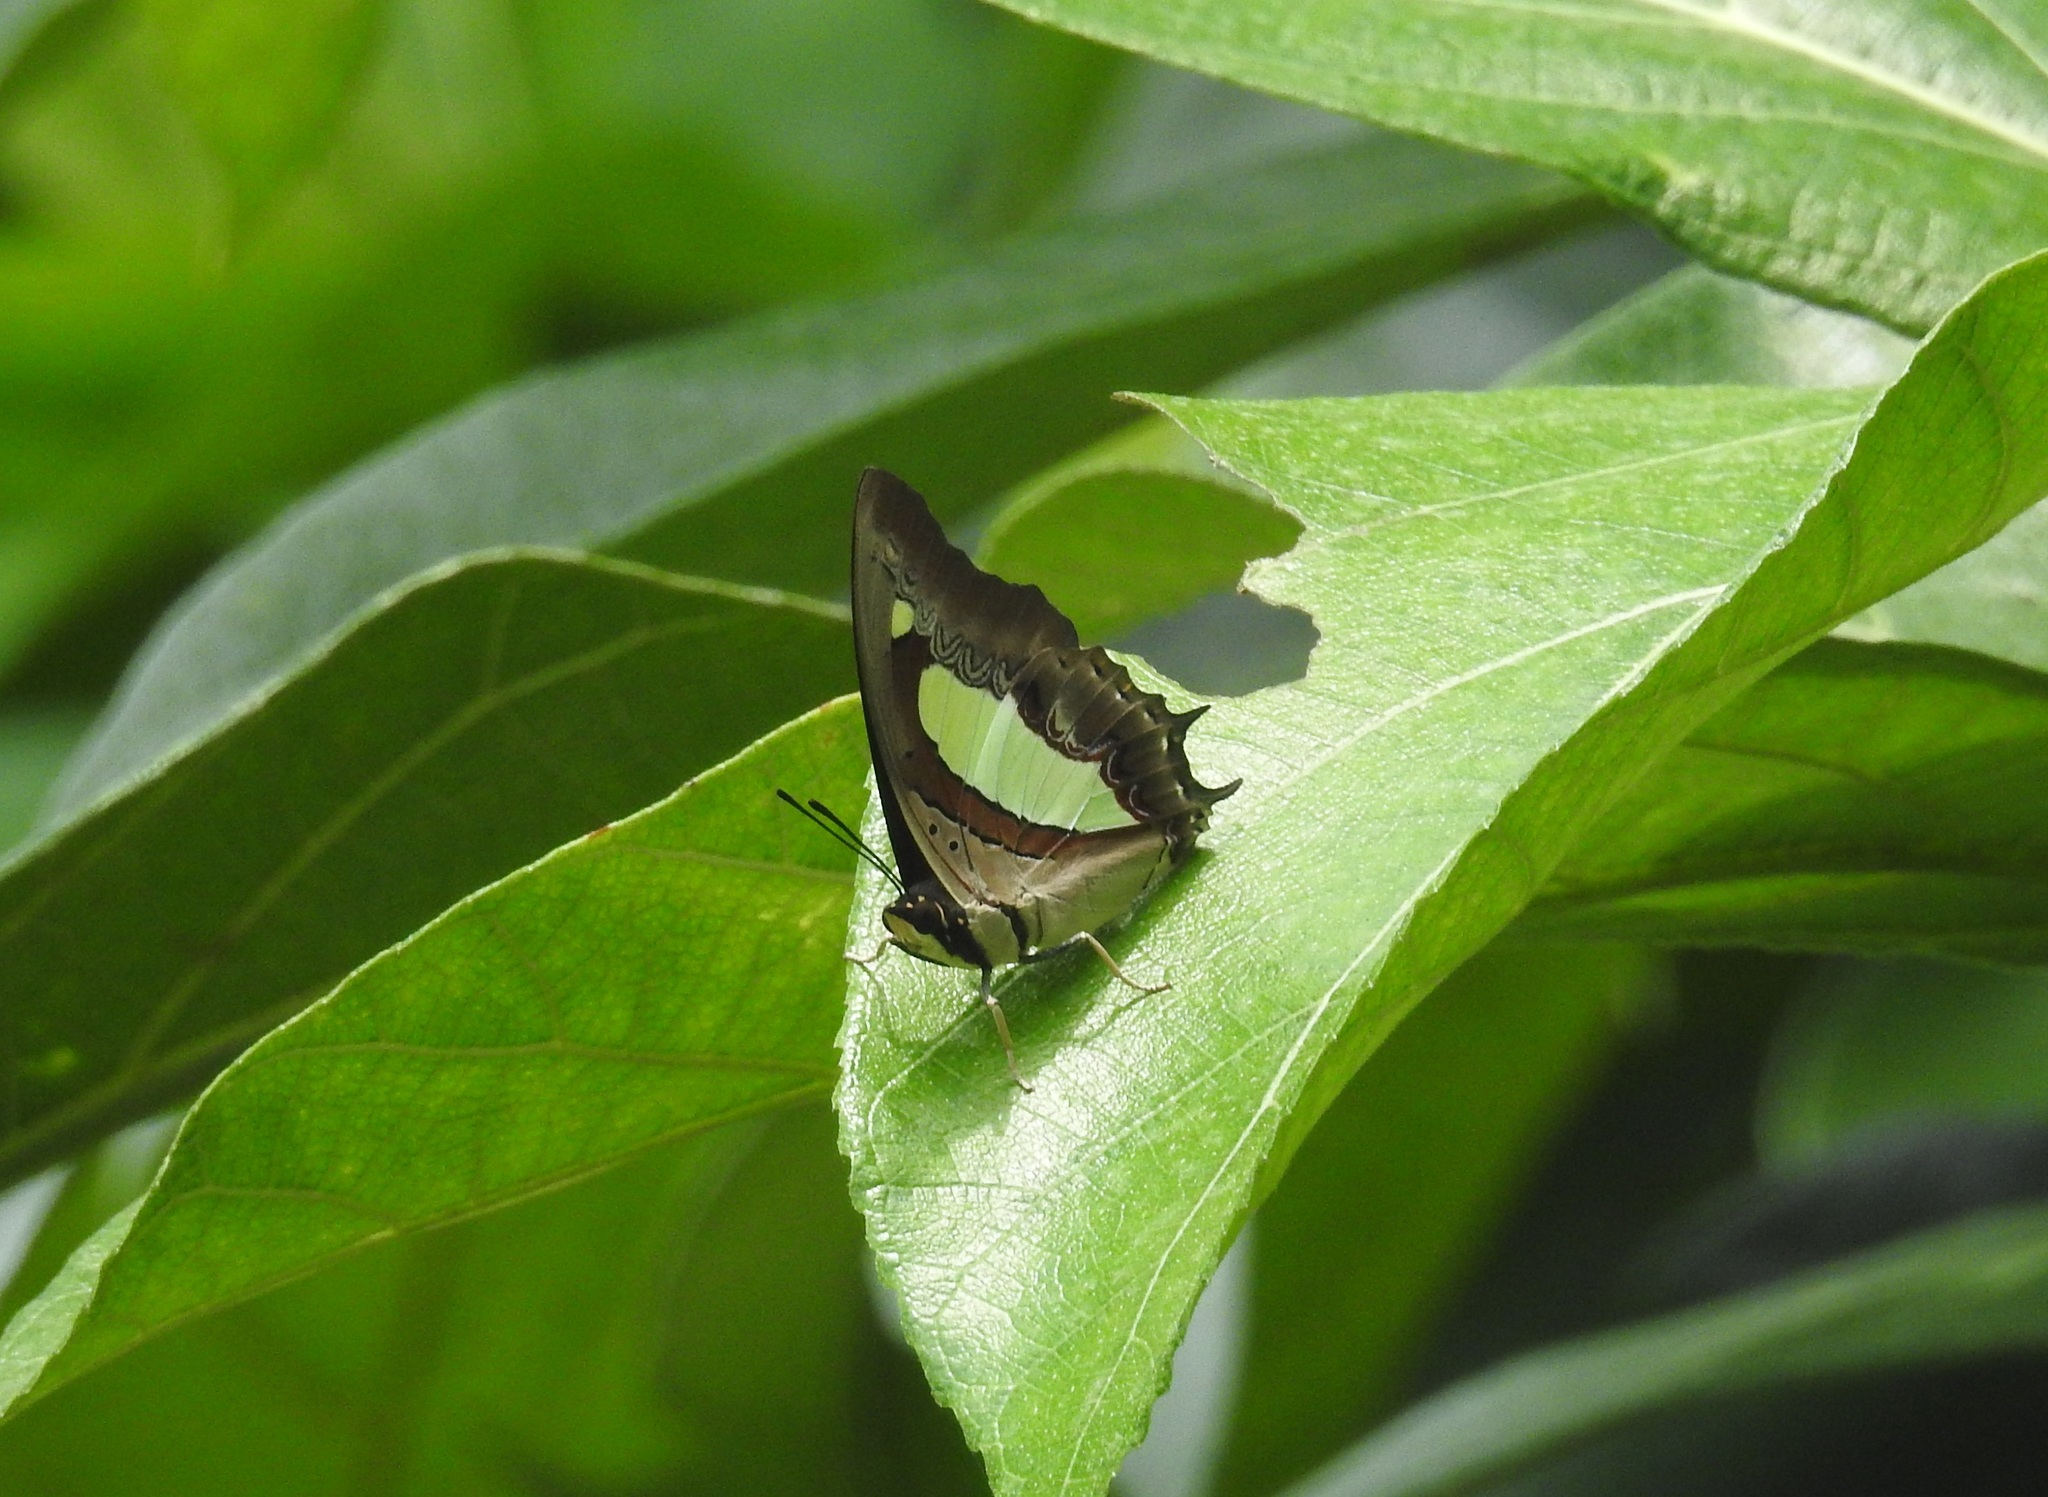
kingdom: Animalia
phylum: Arthropoda
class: Insecta
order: Lepidoptera
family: Nymphalidae
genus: Polyura
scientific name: Polyura
